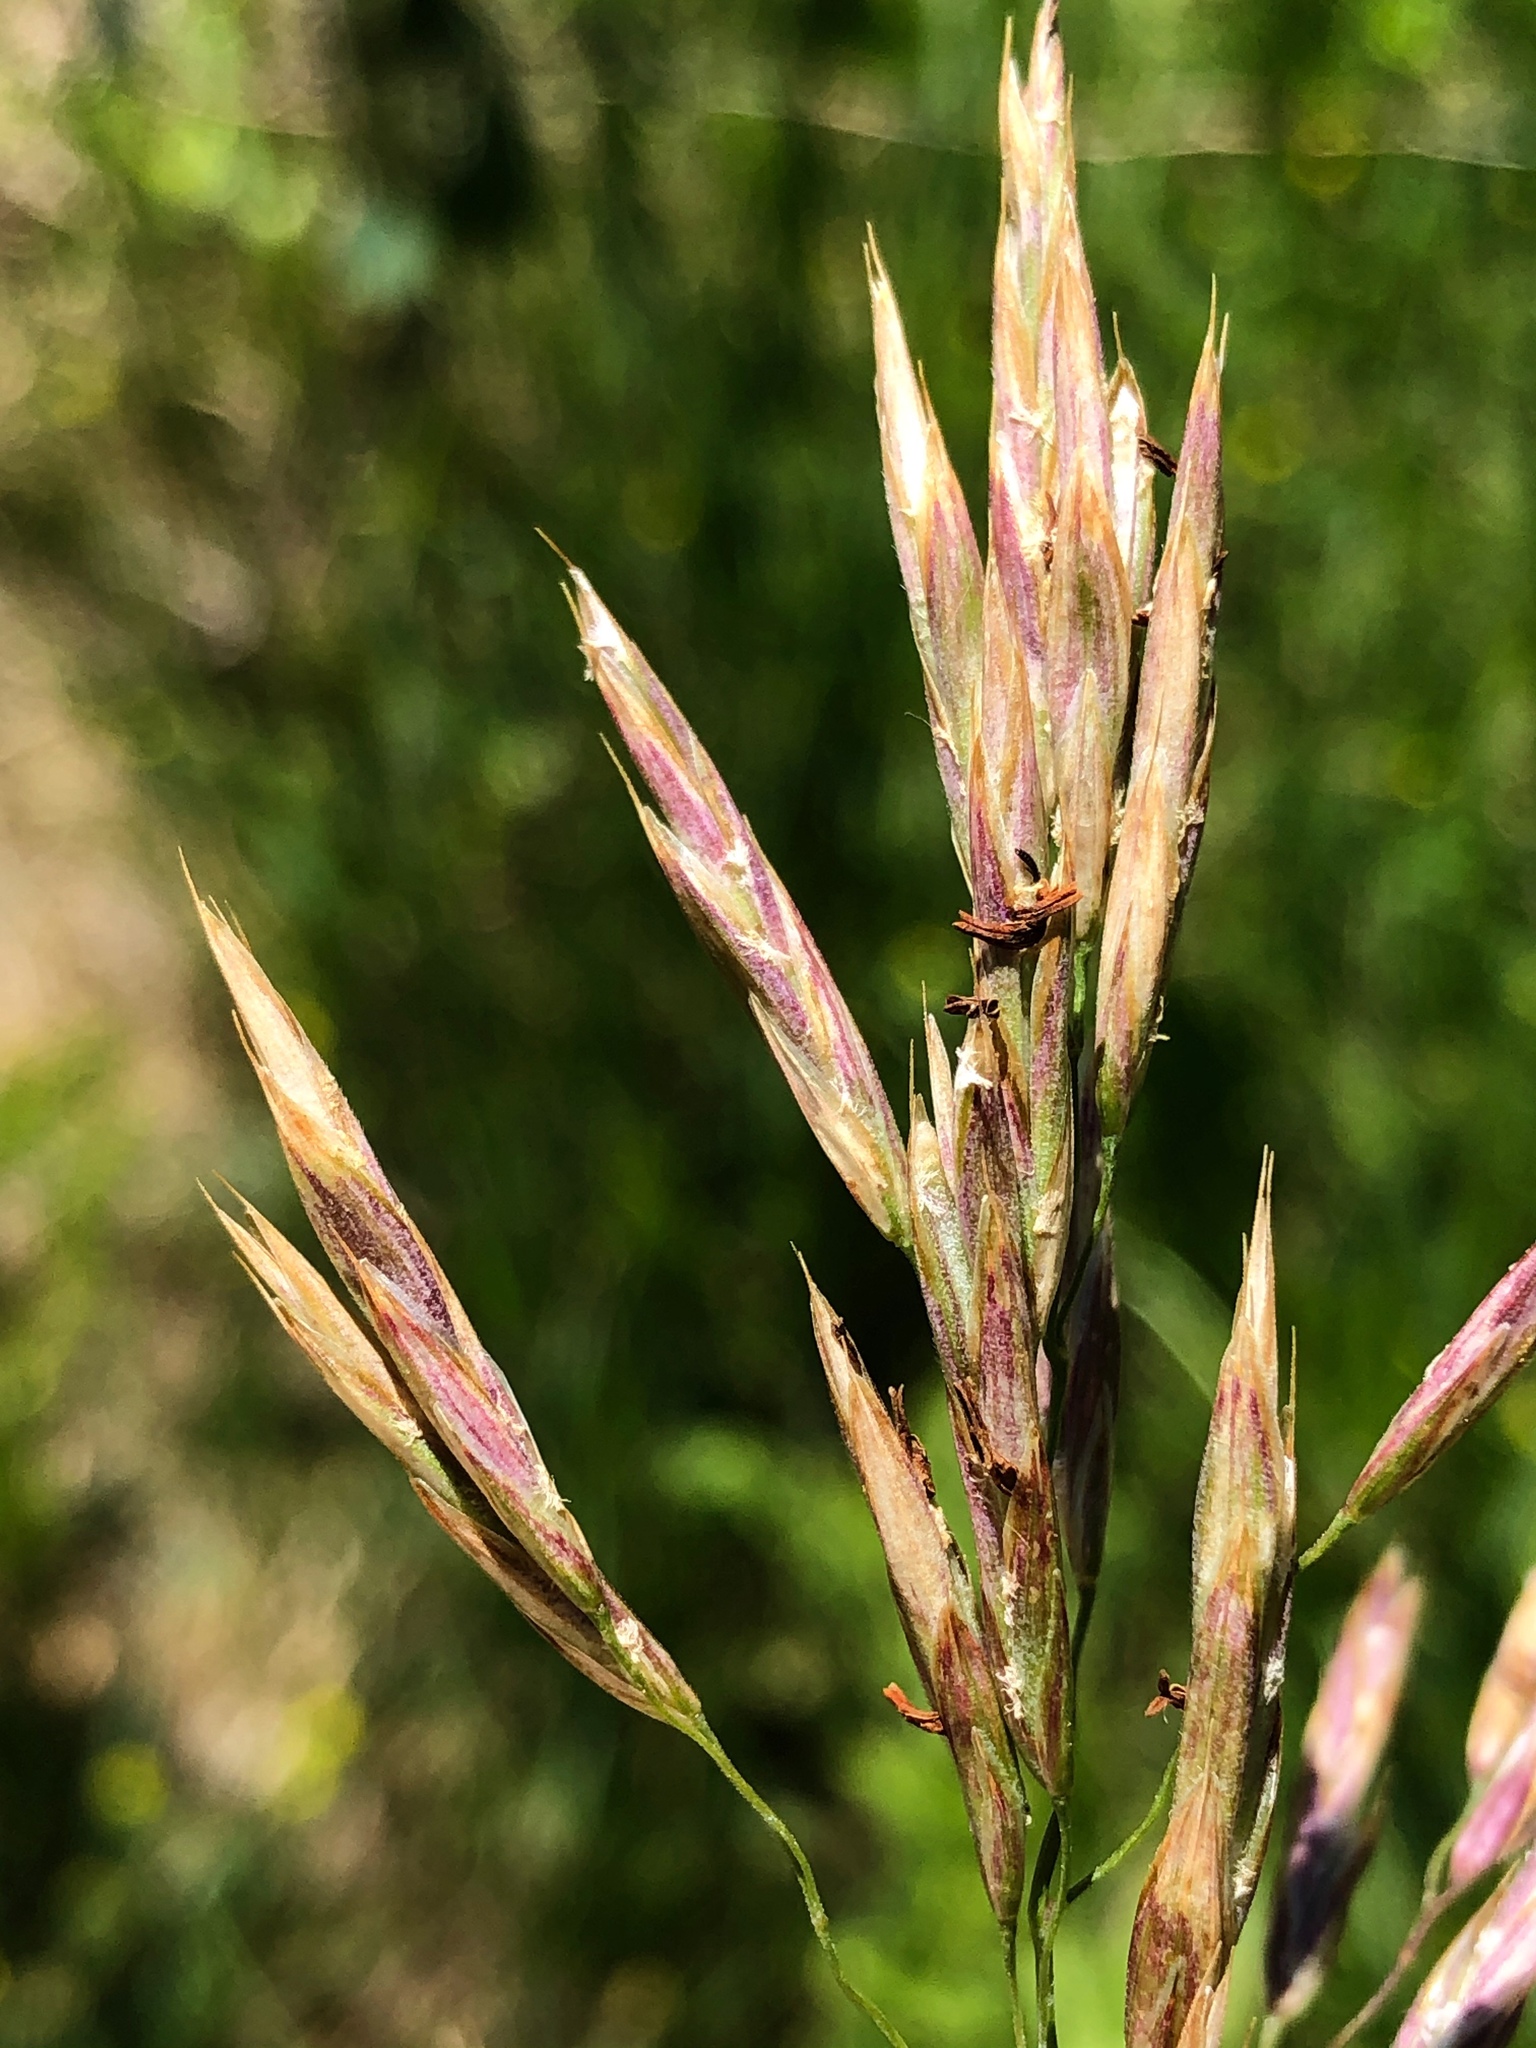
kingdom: Plantae
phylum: Tracheophyta
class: Liliopsida
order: Poales
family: Poaceae
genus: Bromus
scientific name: Bromus inermis
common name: Smooth brome
